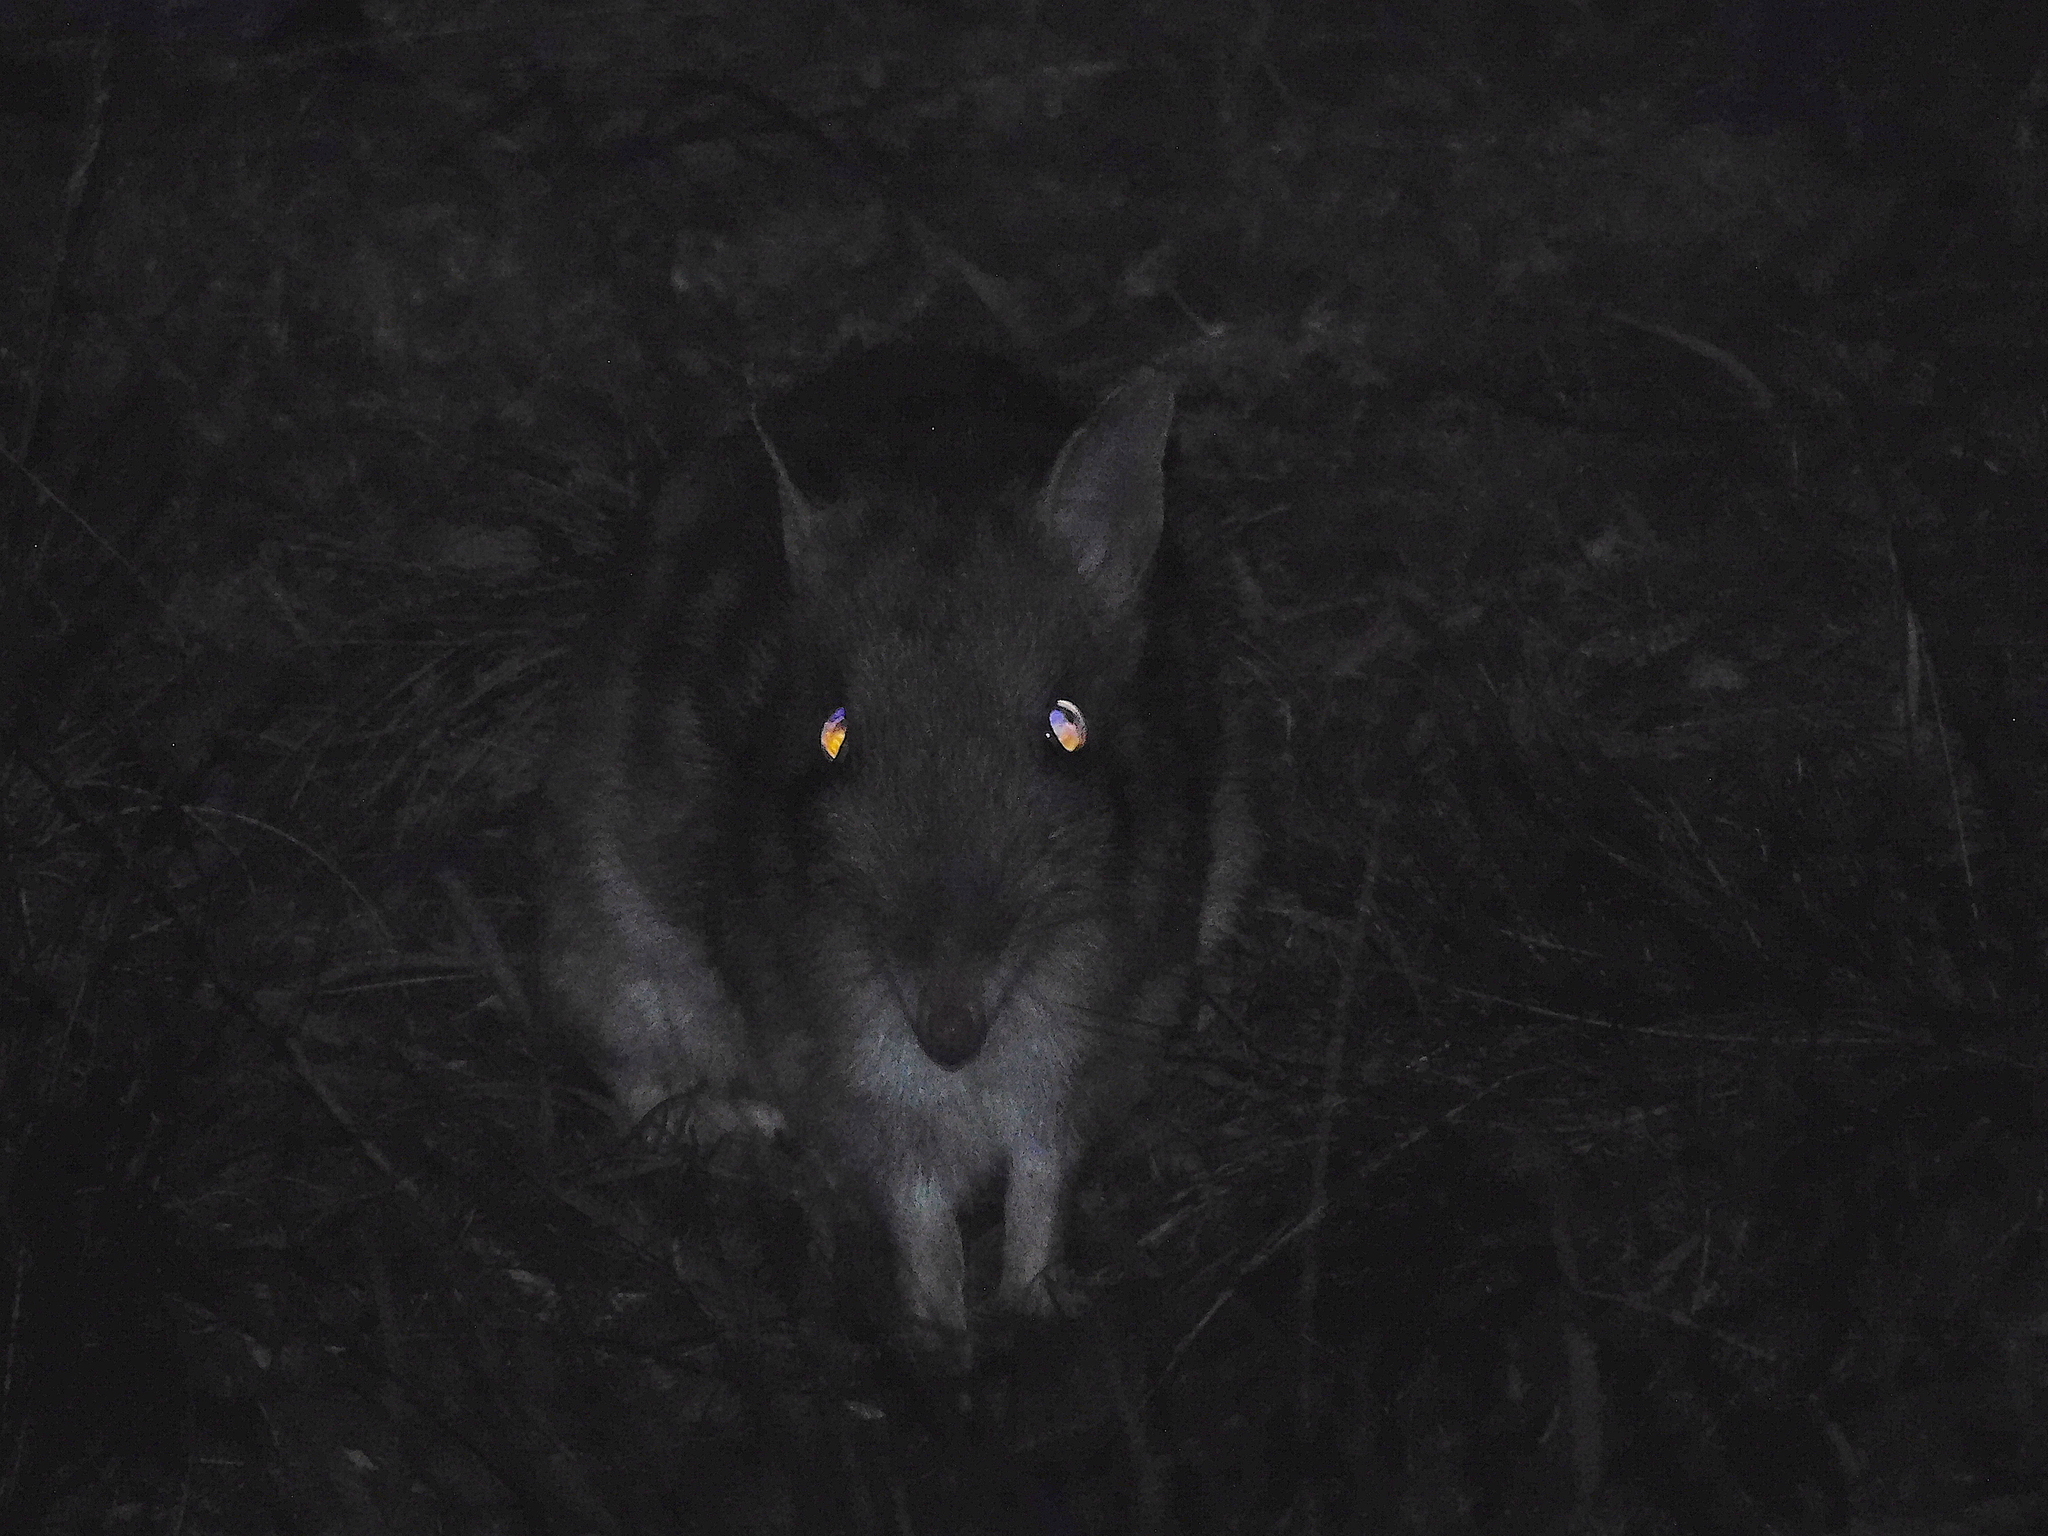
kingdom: Animalia
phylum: Chordata
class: Mammalia
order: Peramelemorphia
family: Peramelidae
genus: Perameles
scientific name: Perameles gunnii
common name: Eastern barred bandicoot
